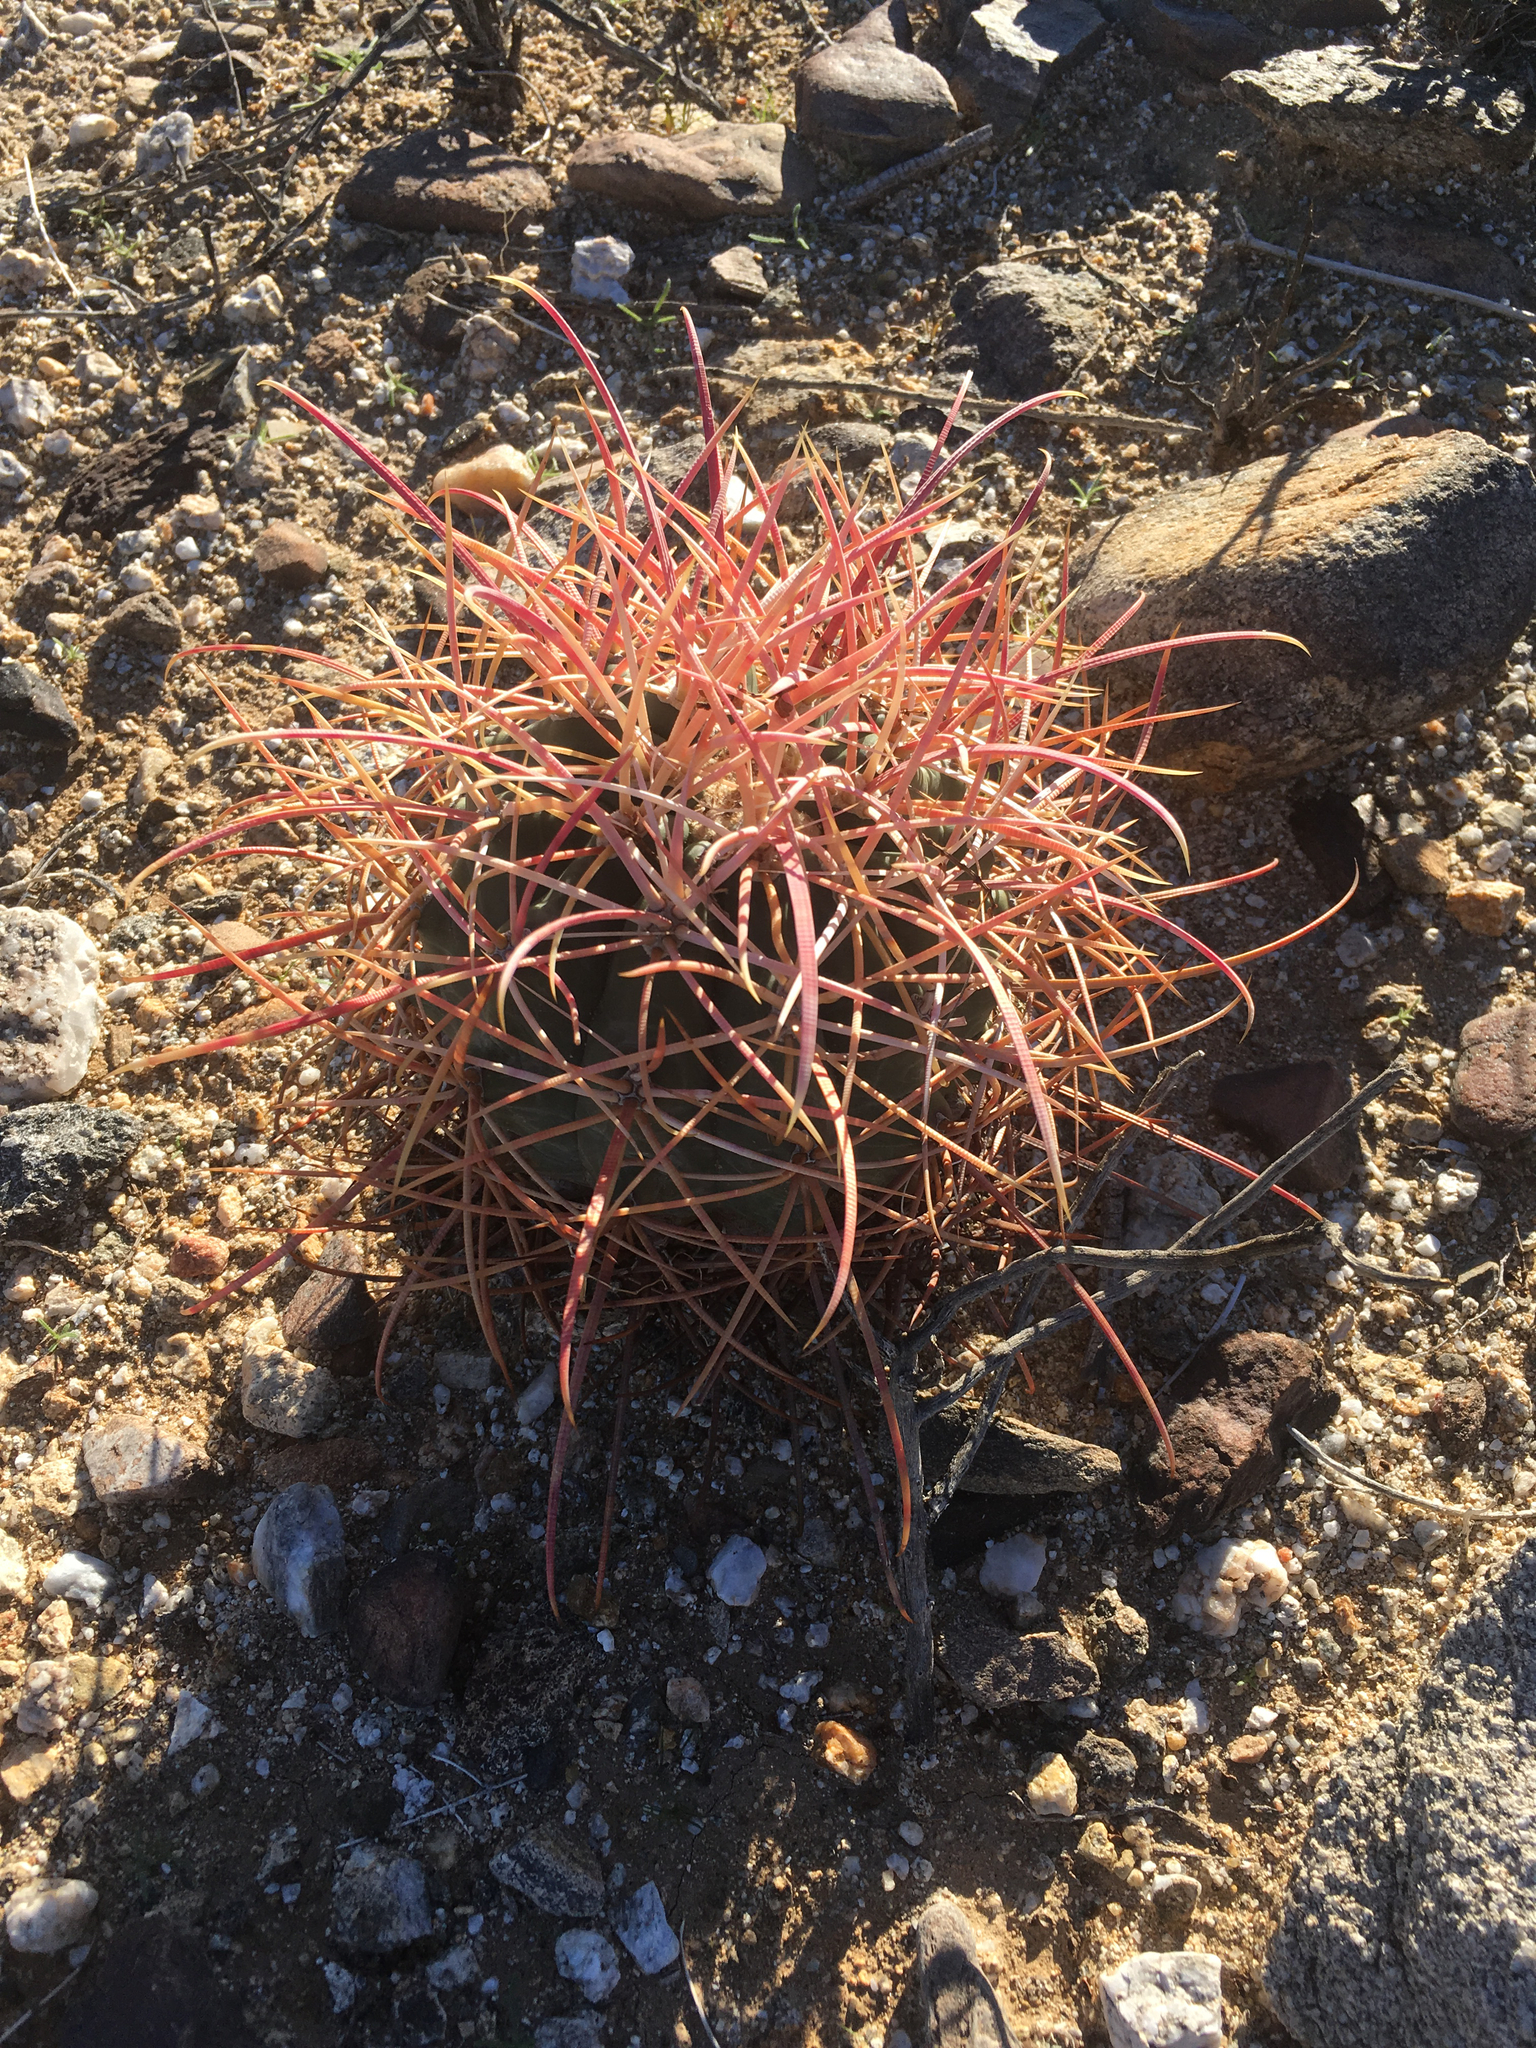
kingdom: Plantae
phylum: Tracheophyta
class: Magnoliopsida
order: Caryophyllales
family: Cactaceae
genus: Ferocactus
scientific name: Ferocactus cylindraceus
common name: California barrel cactus
